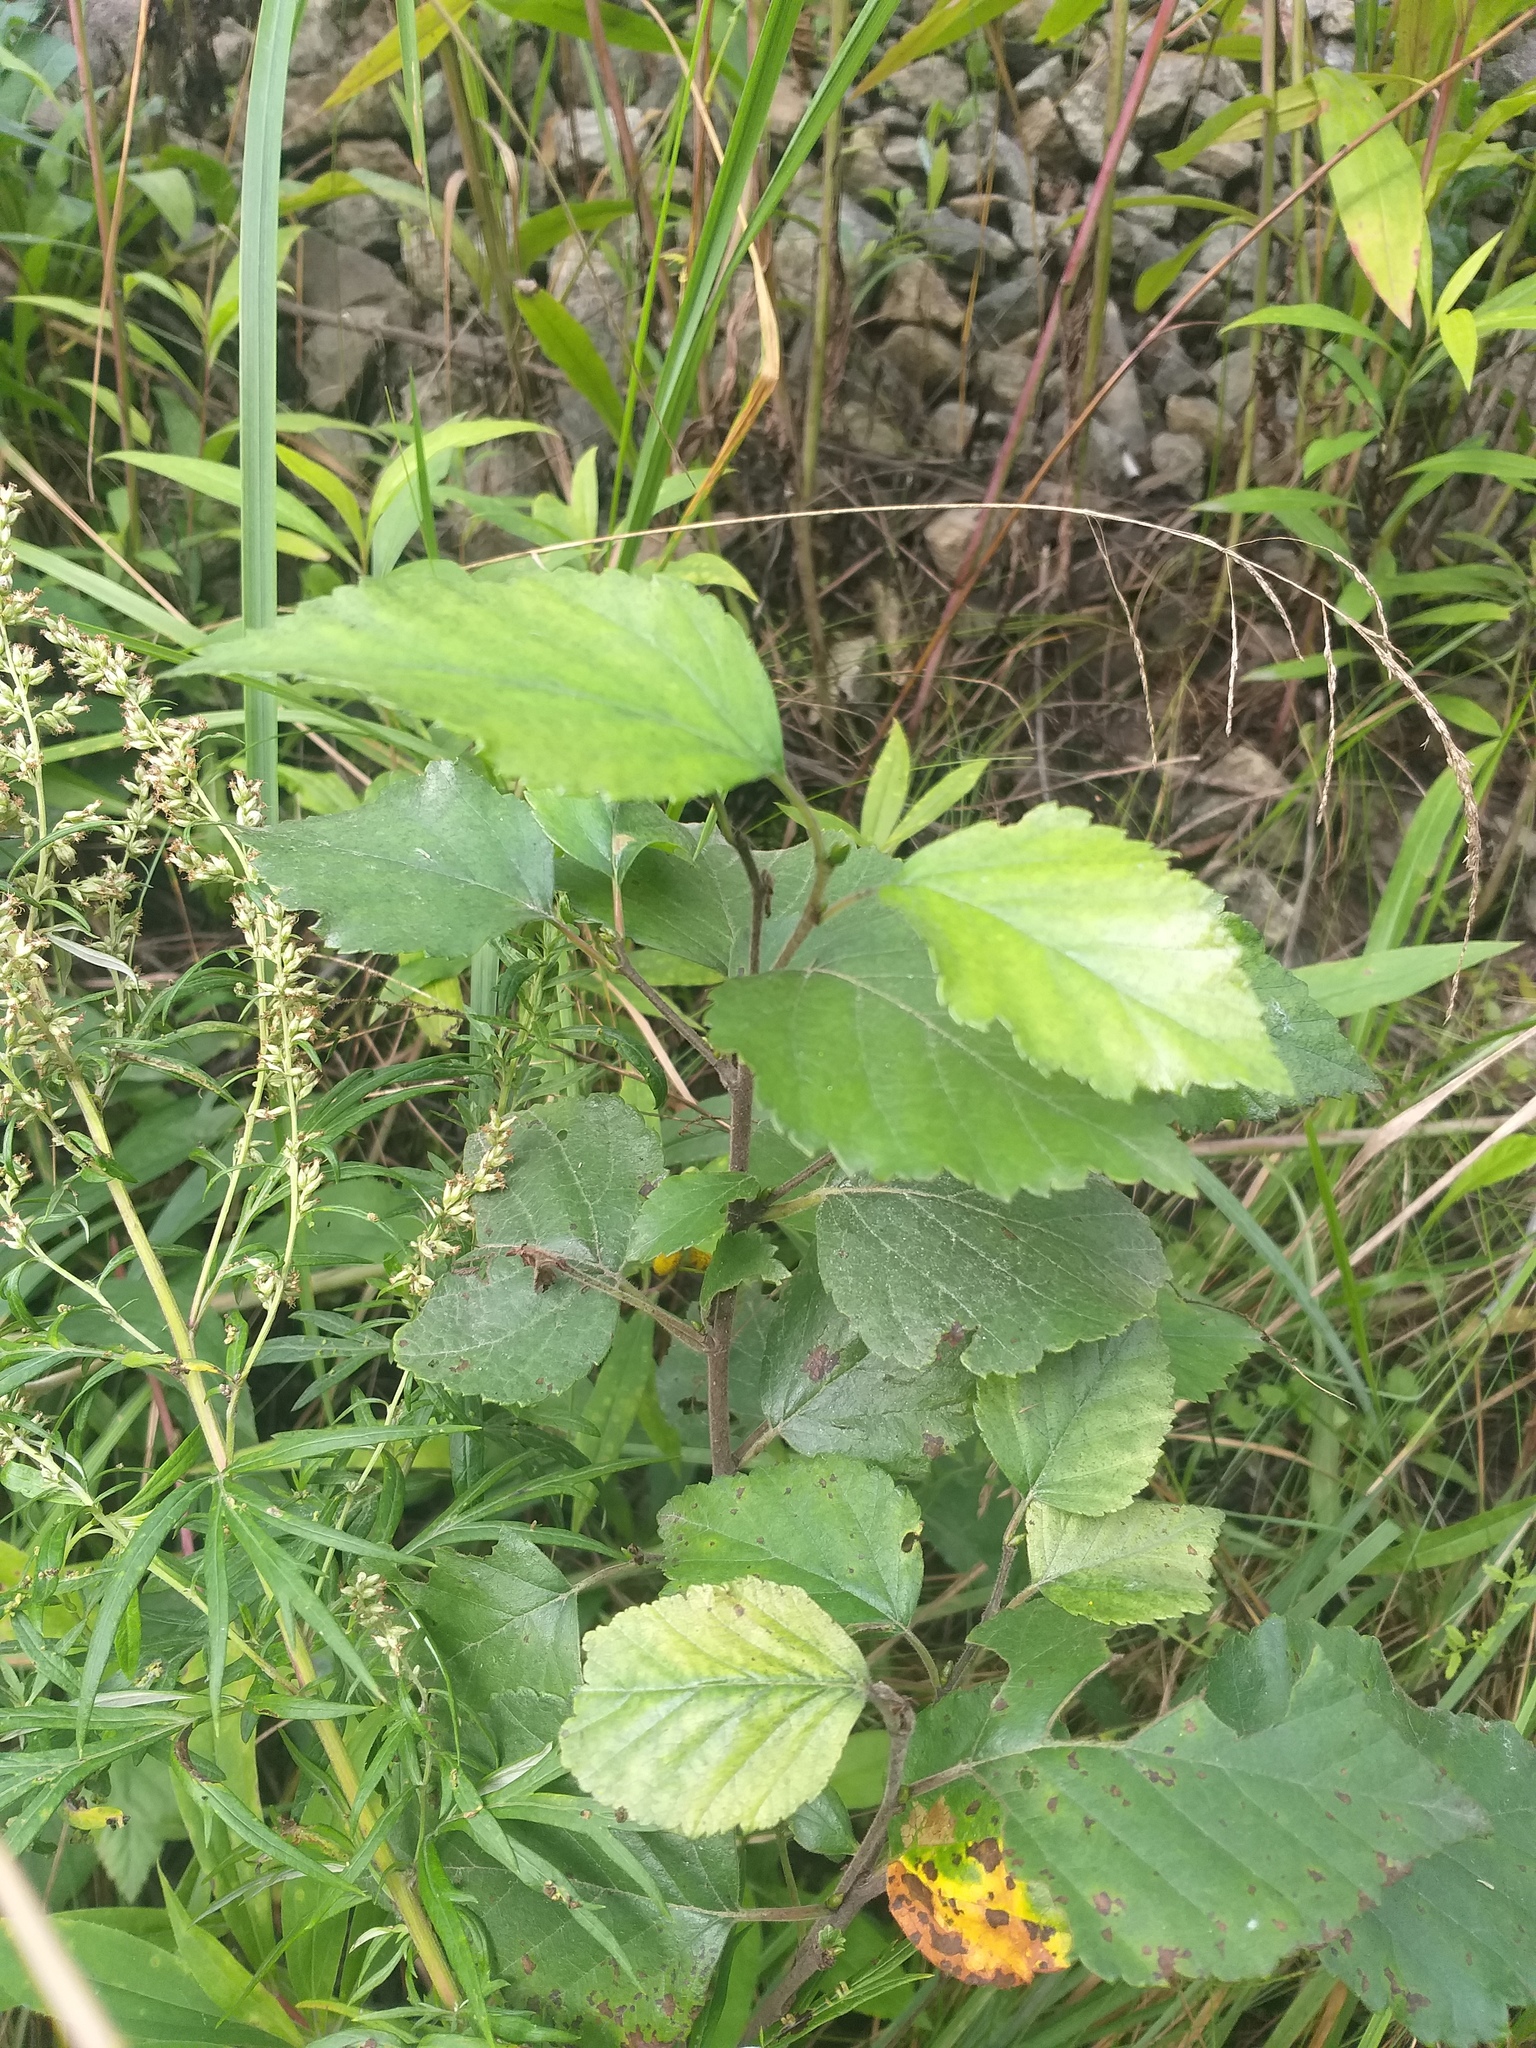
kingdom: Plantae
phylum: Tracheophyta
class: Magnoliopsida
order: Fagales
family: Betulaceae
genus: Betula
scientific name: Betula pubescens
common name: Downy birch
